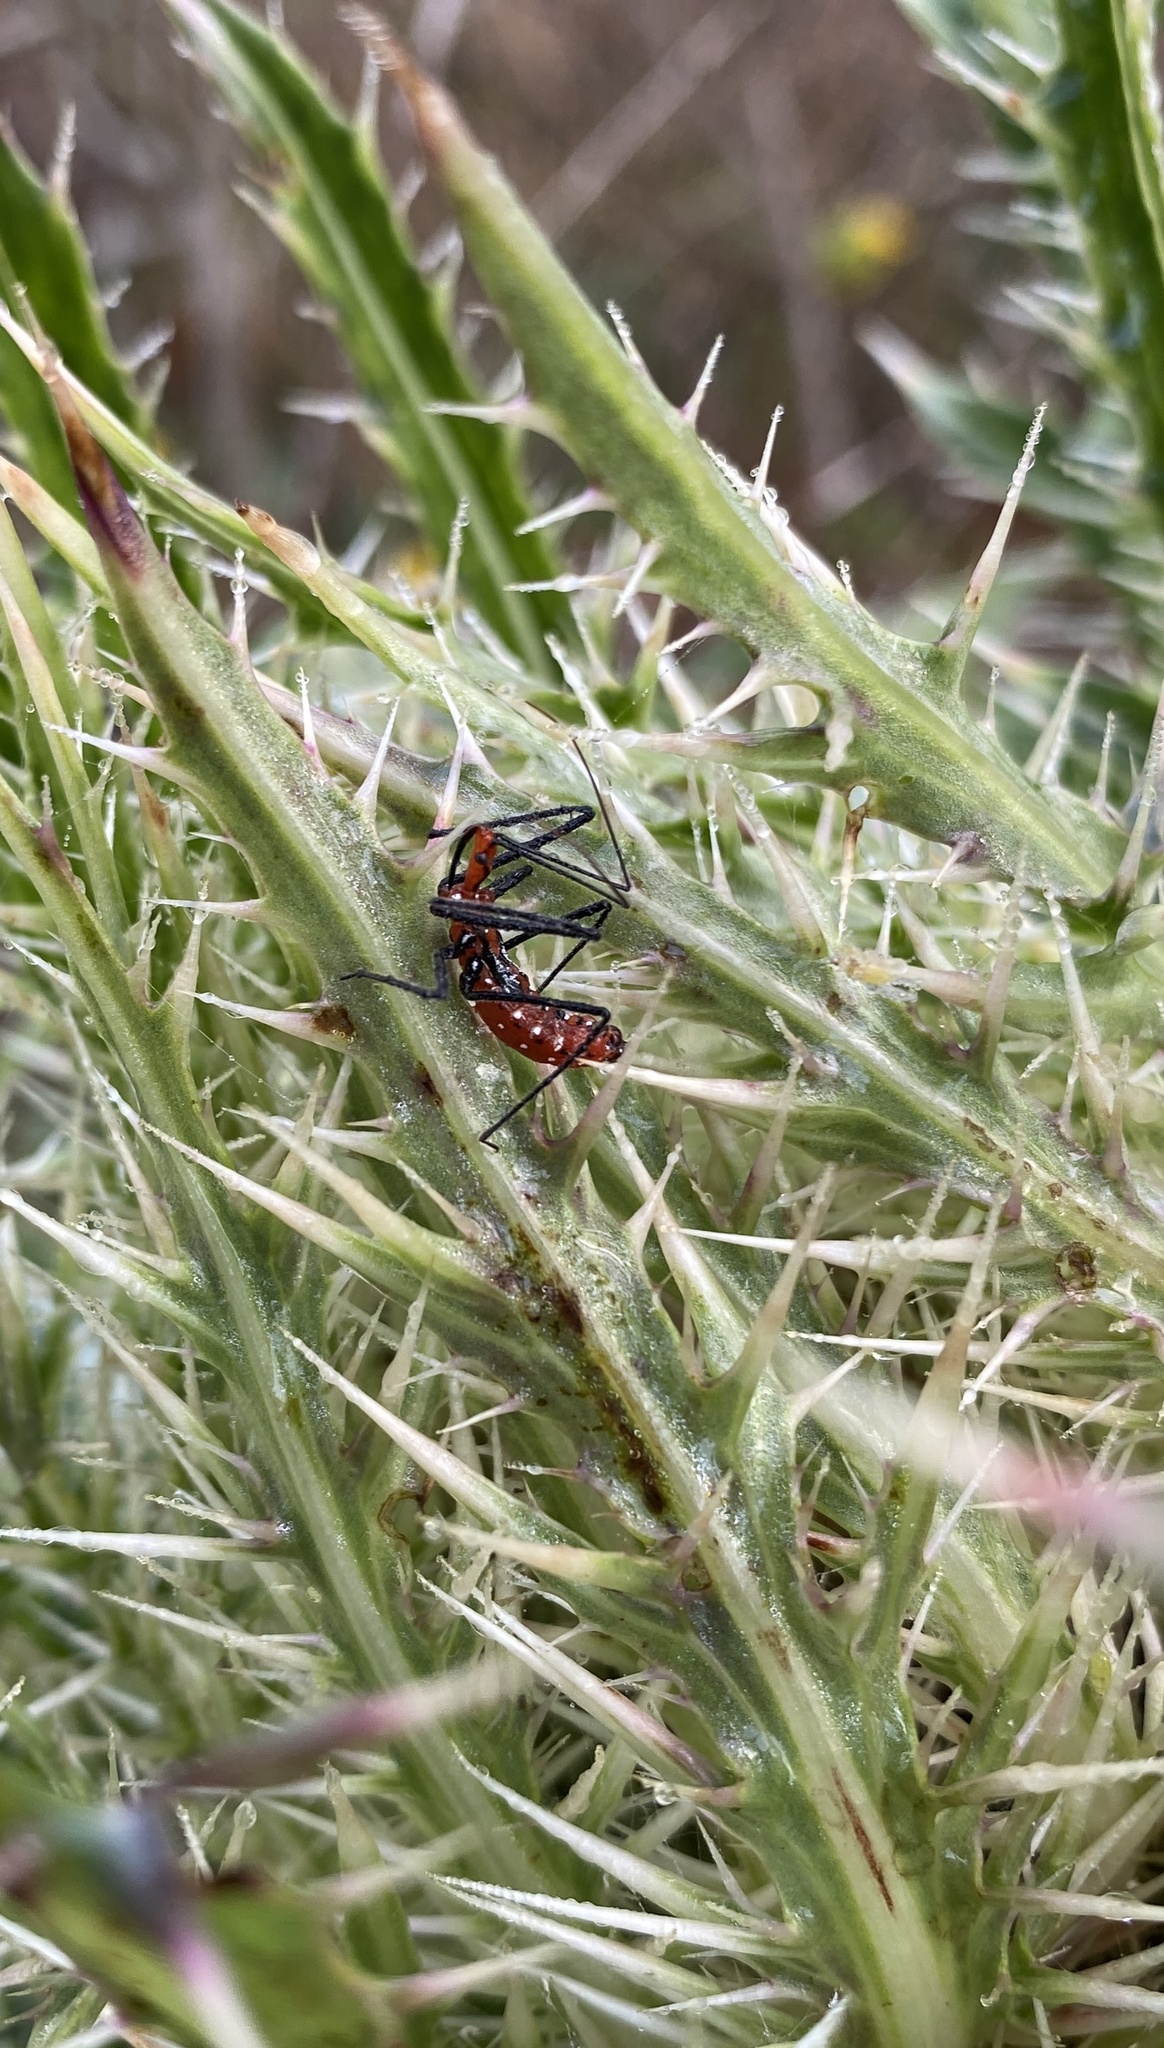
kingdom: Animalia
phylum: Arthropoda
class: Insecta
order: Hemiptera
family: Reduviidae
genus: Zelus
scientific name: Zelus longipes
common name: Milkweed assassin bug
